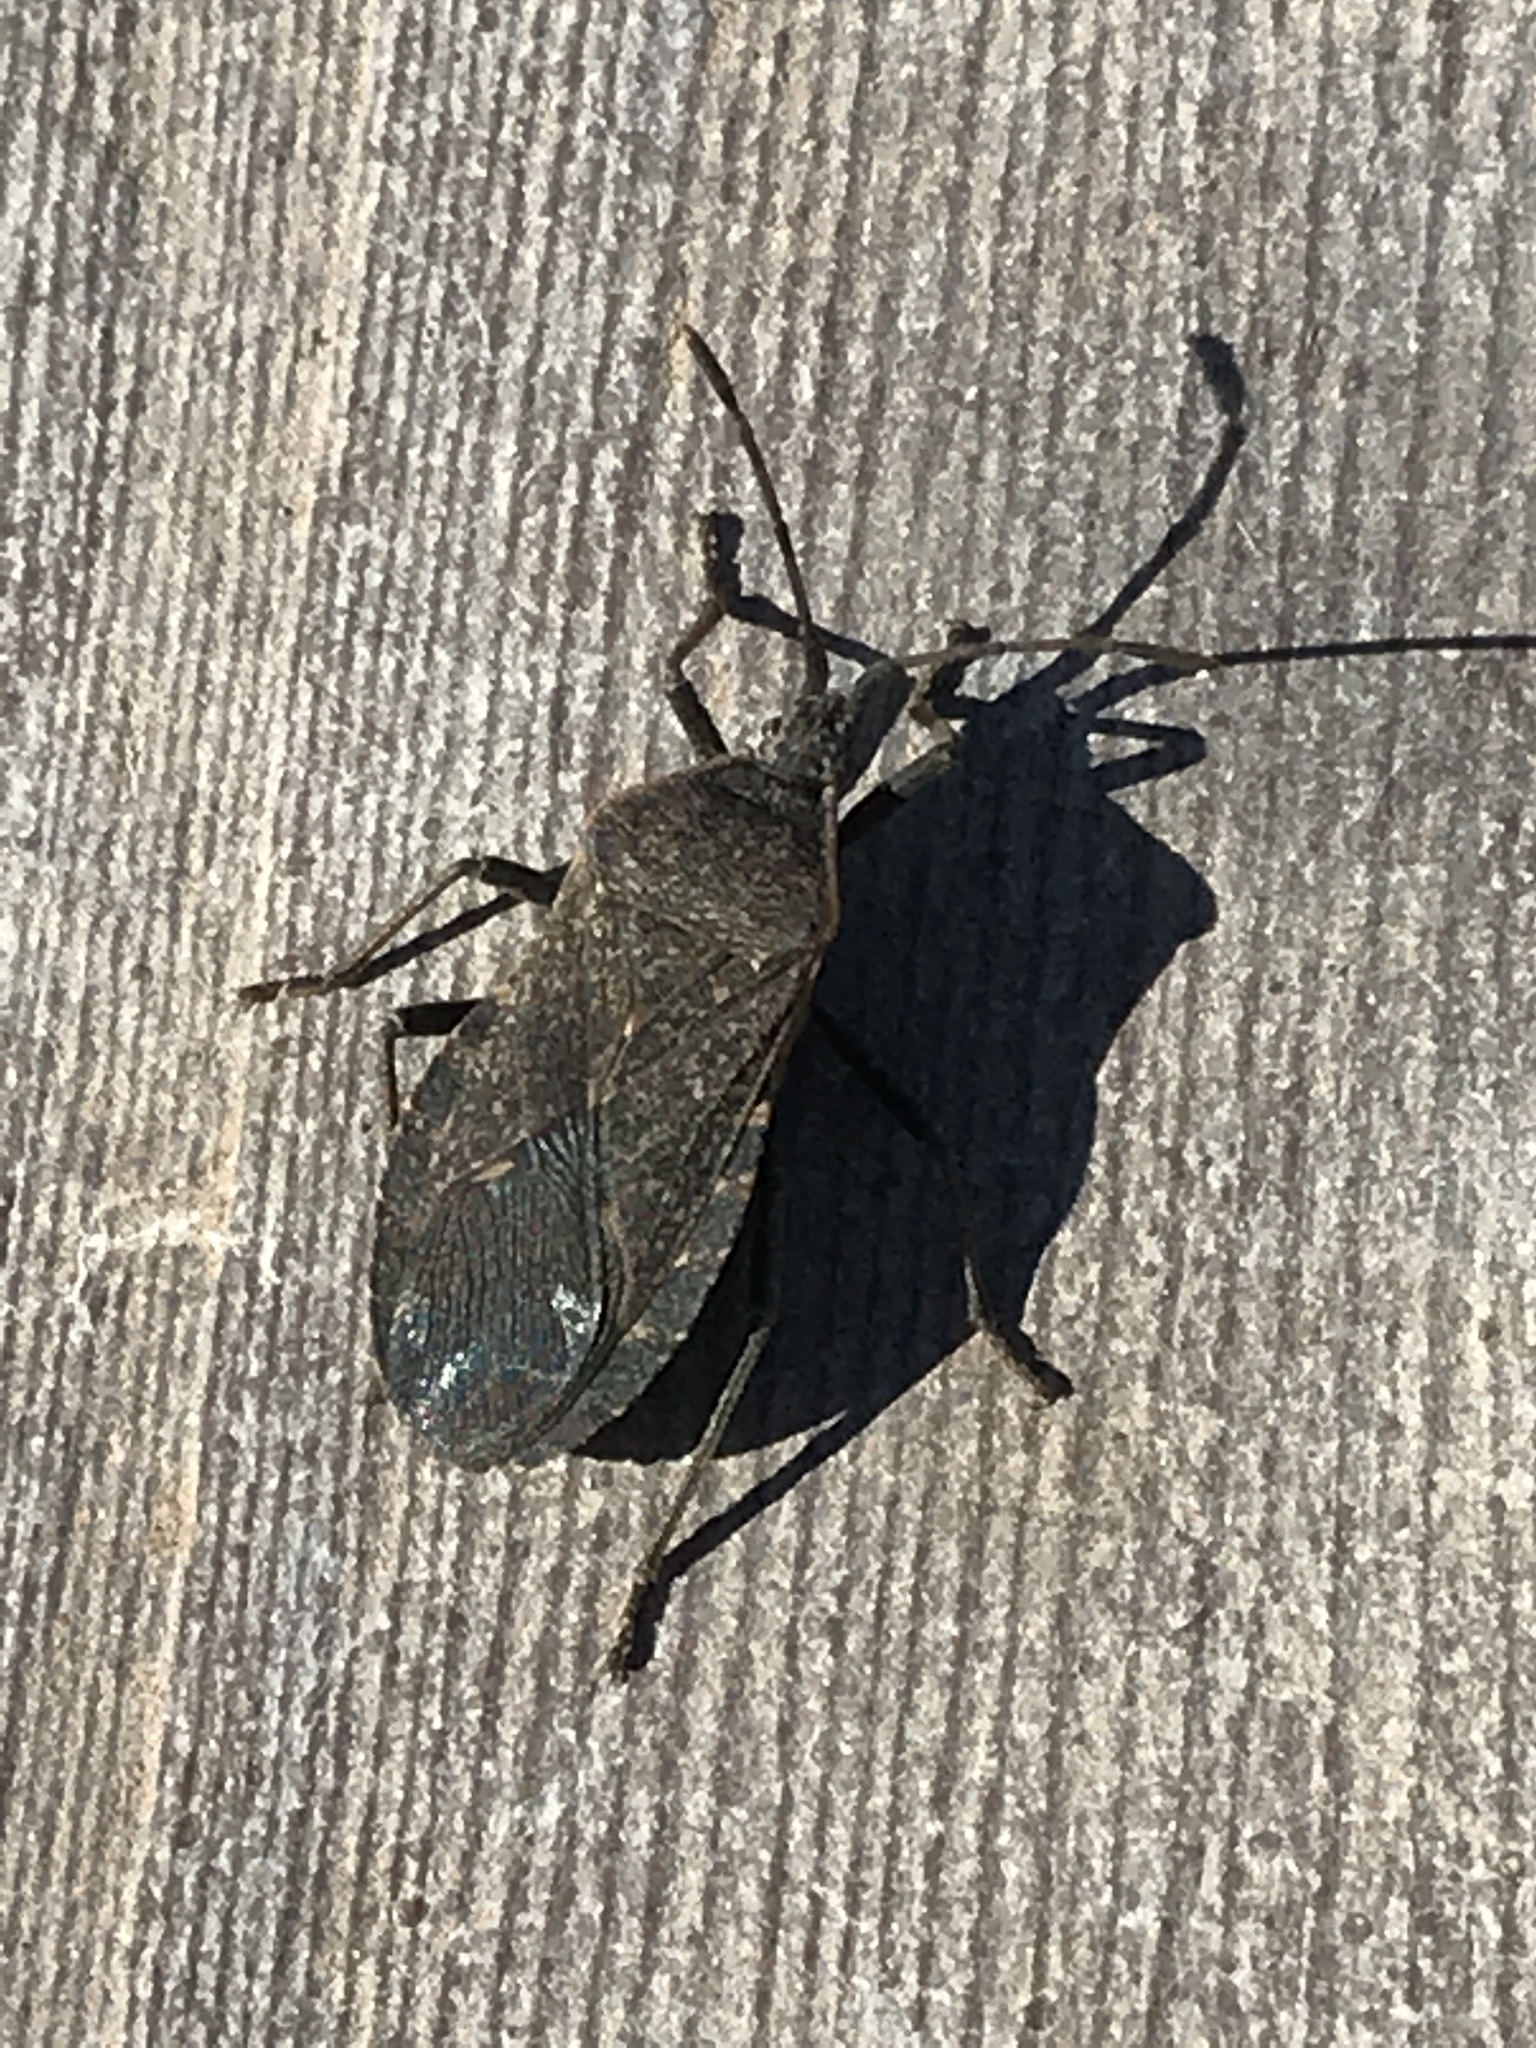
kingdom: Animalia
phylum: Arthropoda
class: Insecta
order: Hemiptera
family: Coreidae
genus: Anasa
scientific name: Anasa tristis
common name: Squash bug
